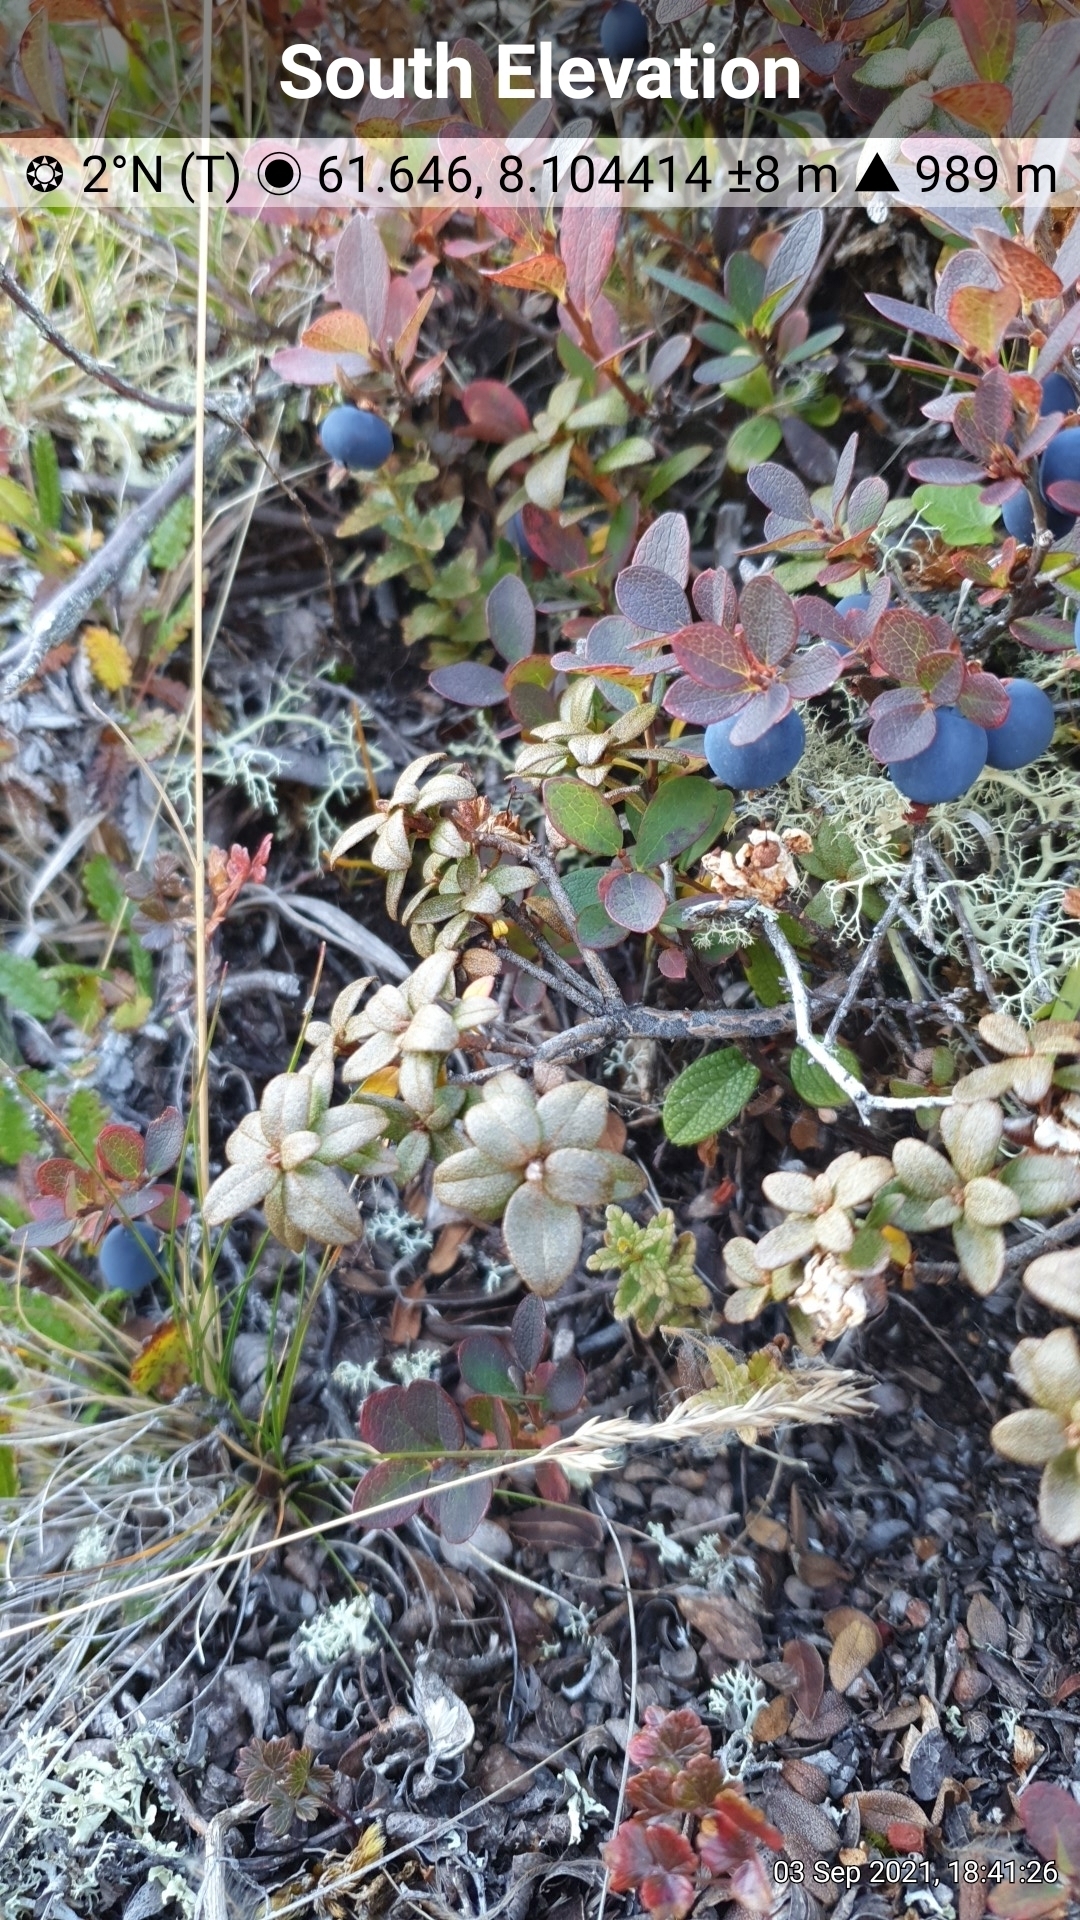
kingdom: Plantae
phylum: Tracheophyta
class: Magnoliopsida
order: Ericales
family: Ericaceae
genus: Rhododendron
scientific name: Rhododendron lapponicum
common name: Lapland rhododendron
